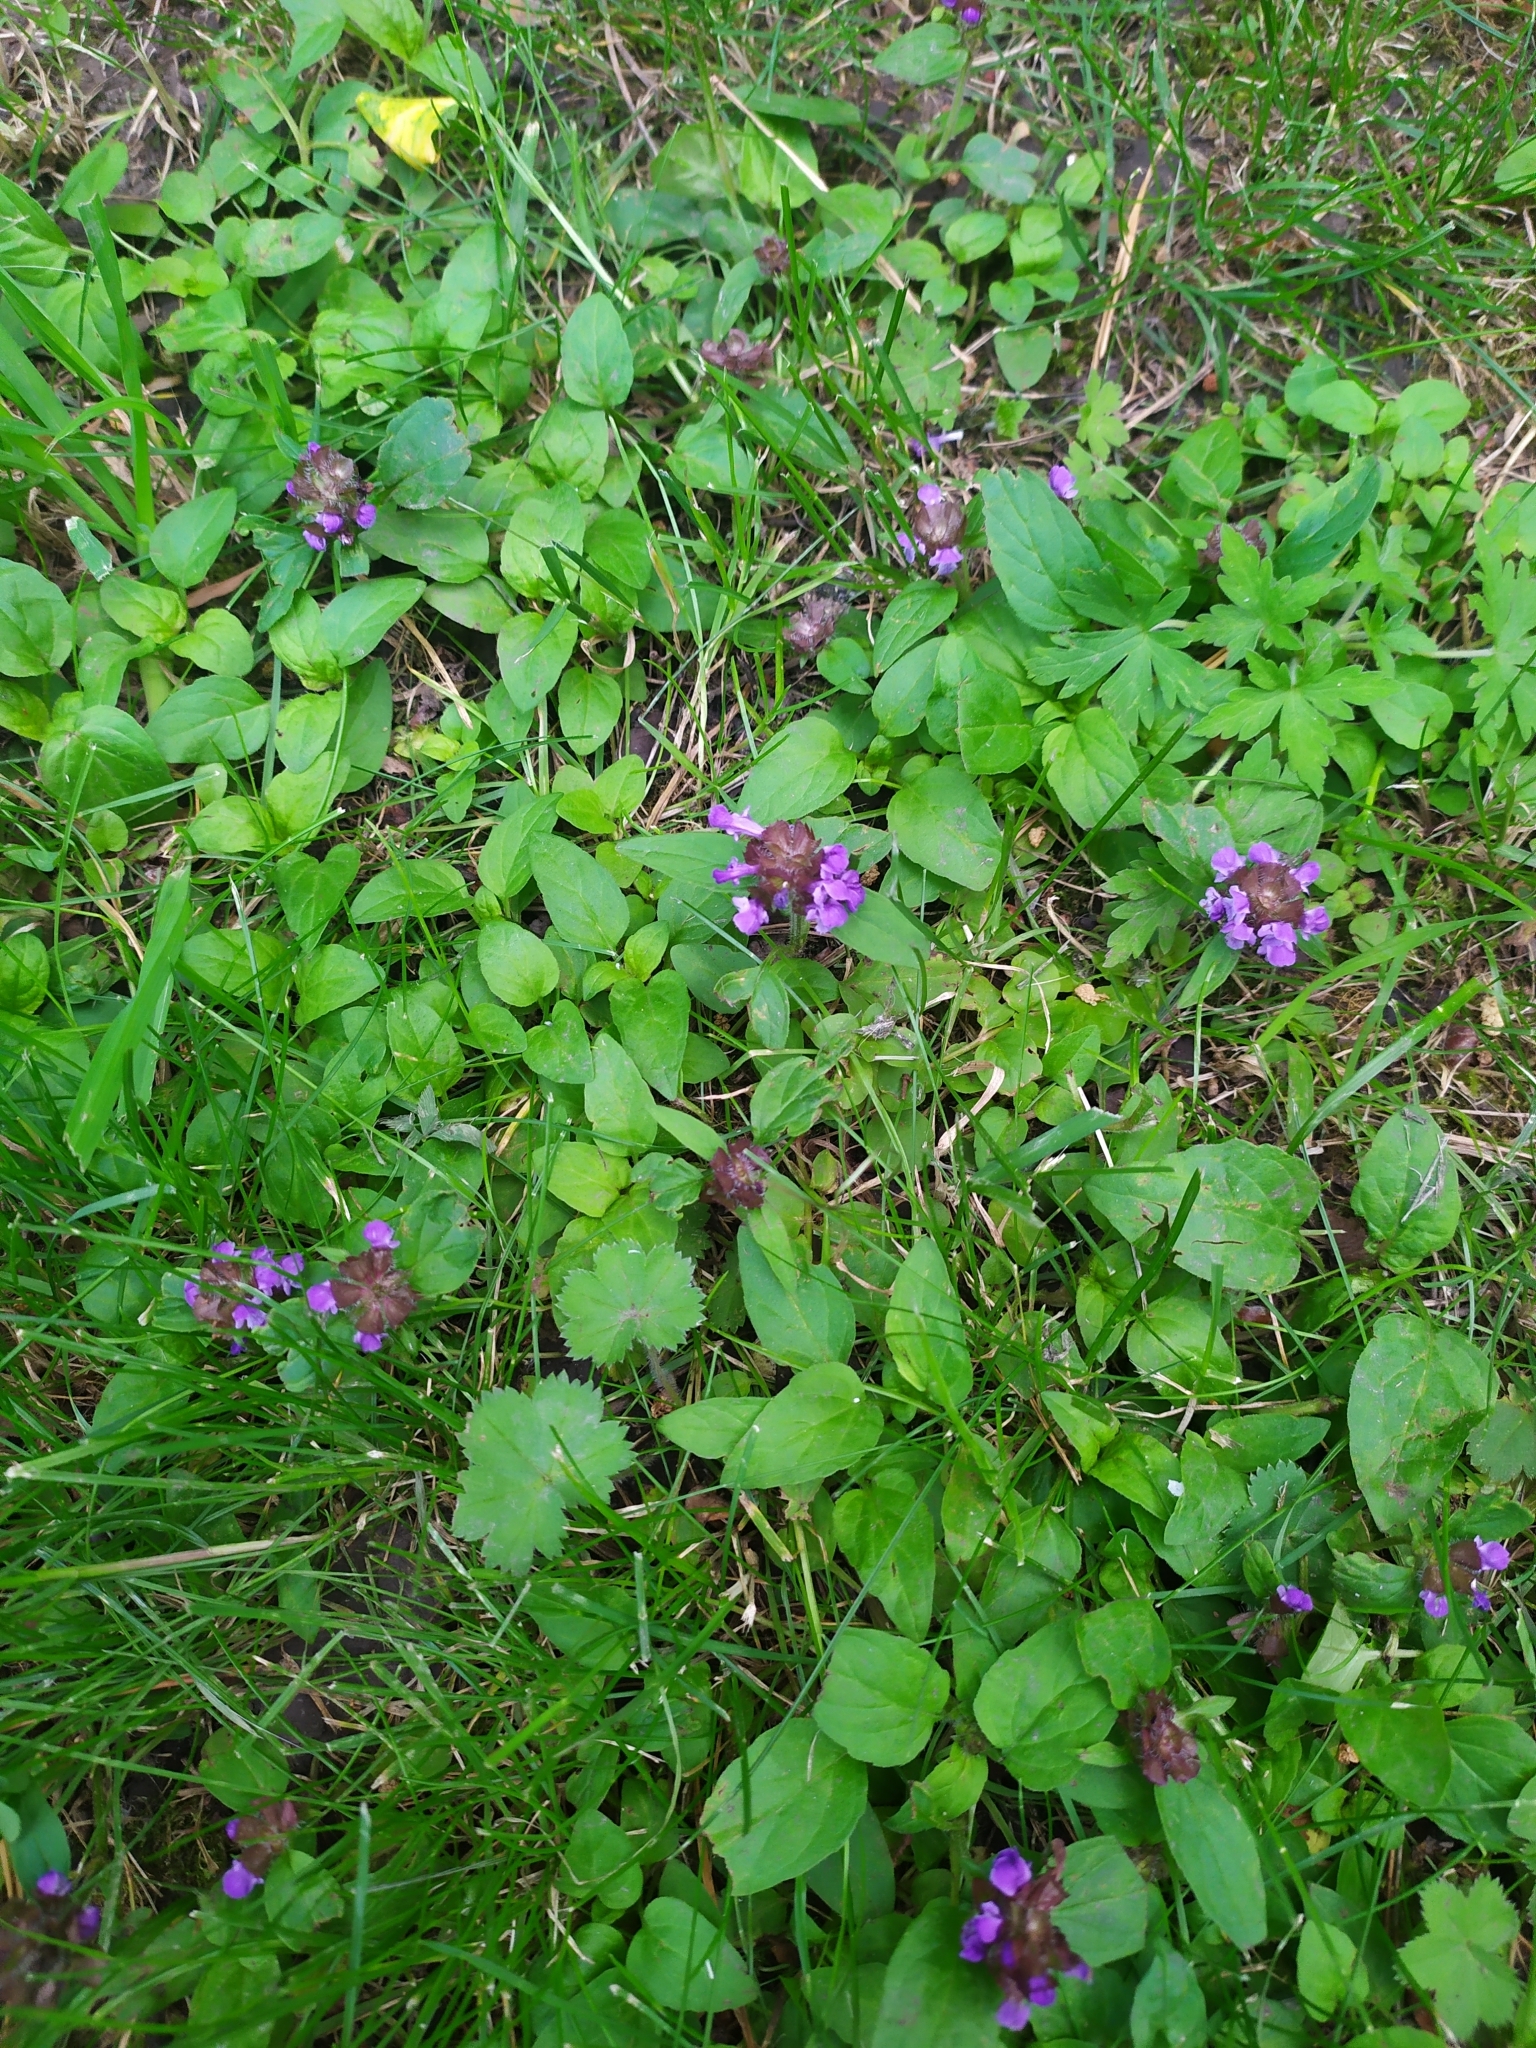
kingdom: Plantae
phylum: Tracheophyta
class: Magnoliopsida
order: Lamiales
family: Lamiaceae
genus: Prunella
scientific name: Prunella vulgaris
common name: Heal-all
